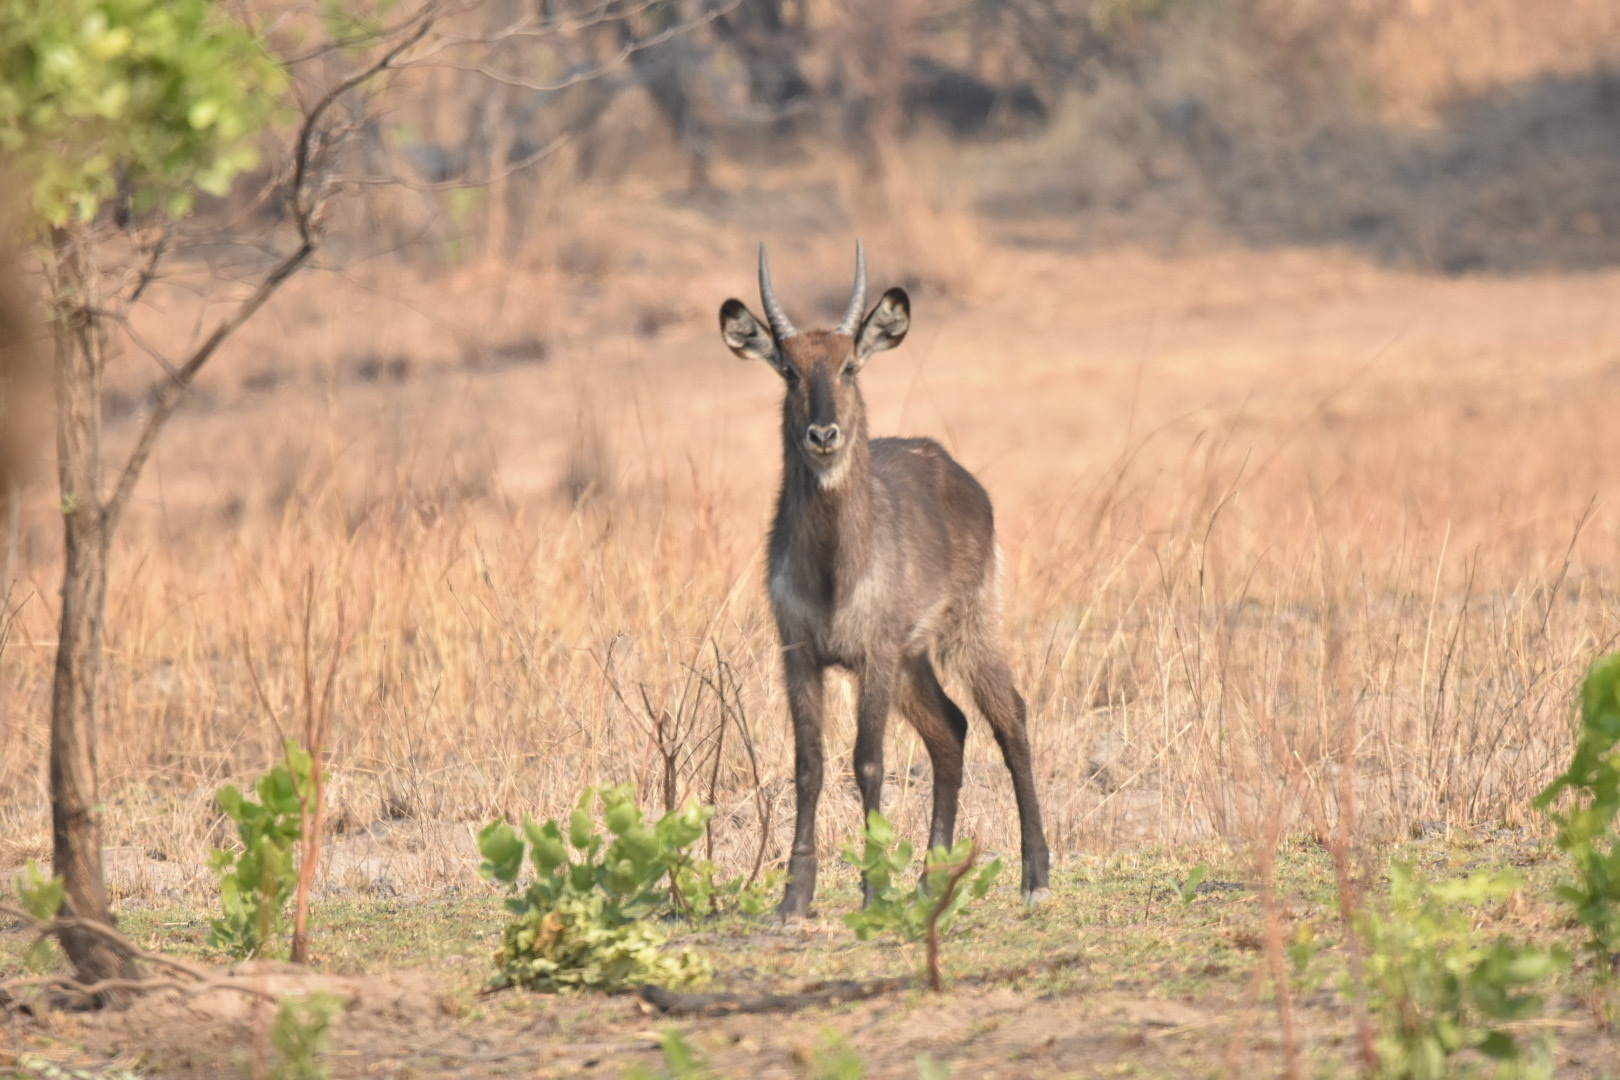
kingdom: Animalia
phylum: Chordata
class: Mammalia
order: Artiodactyla
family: Bovidae
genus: Kobus
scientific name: Kobus ellipsiprymnus
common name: Waterbuck
